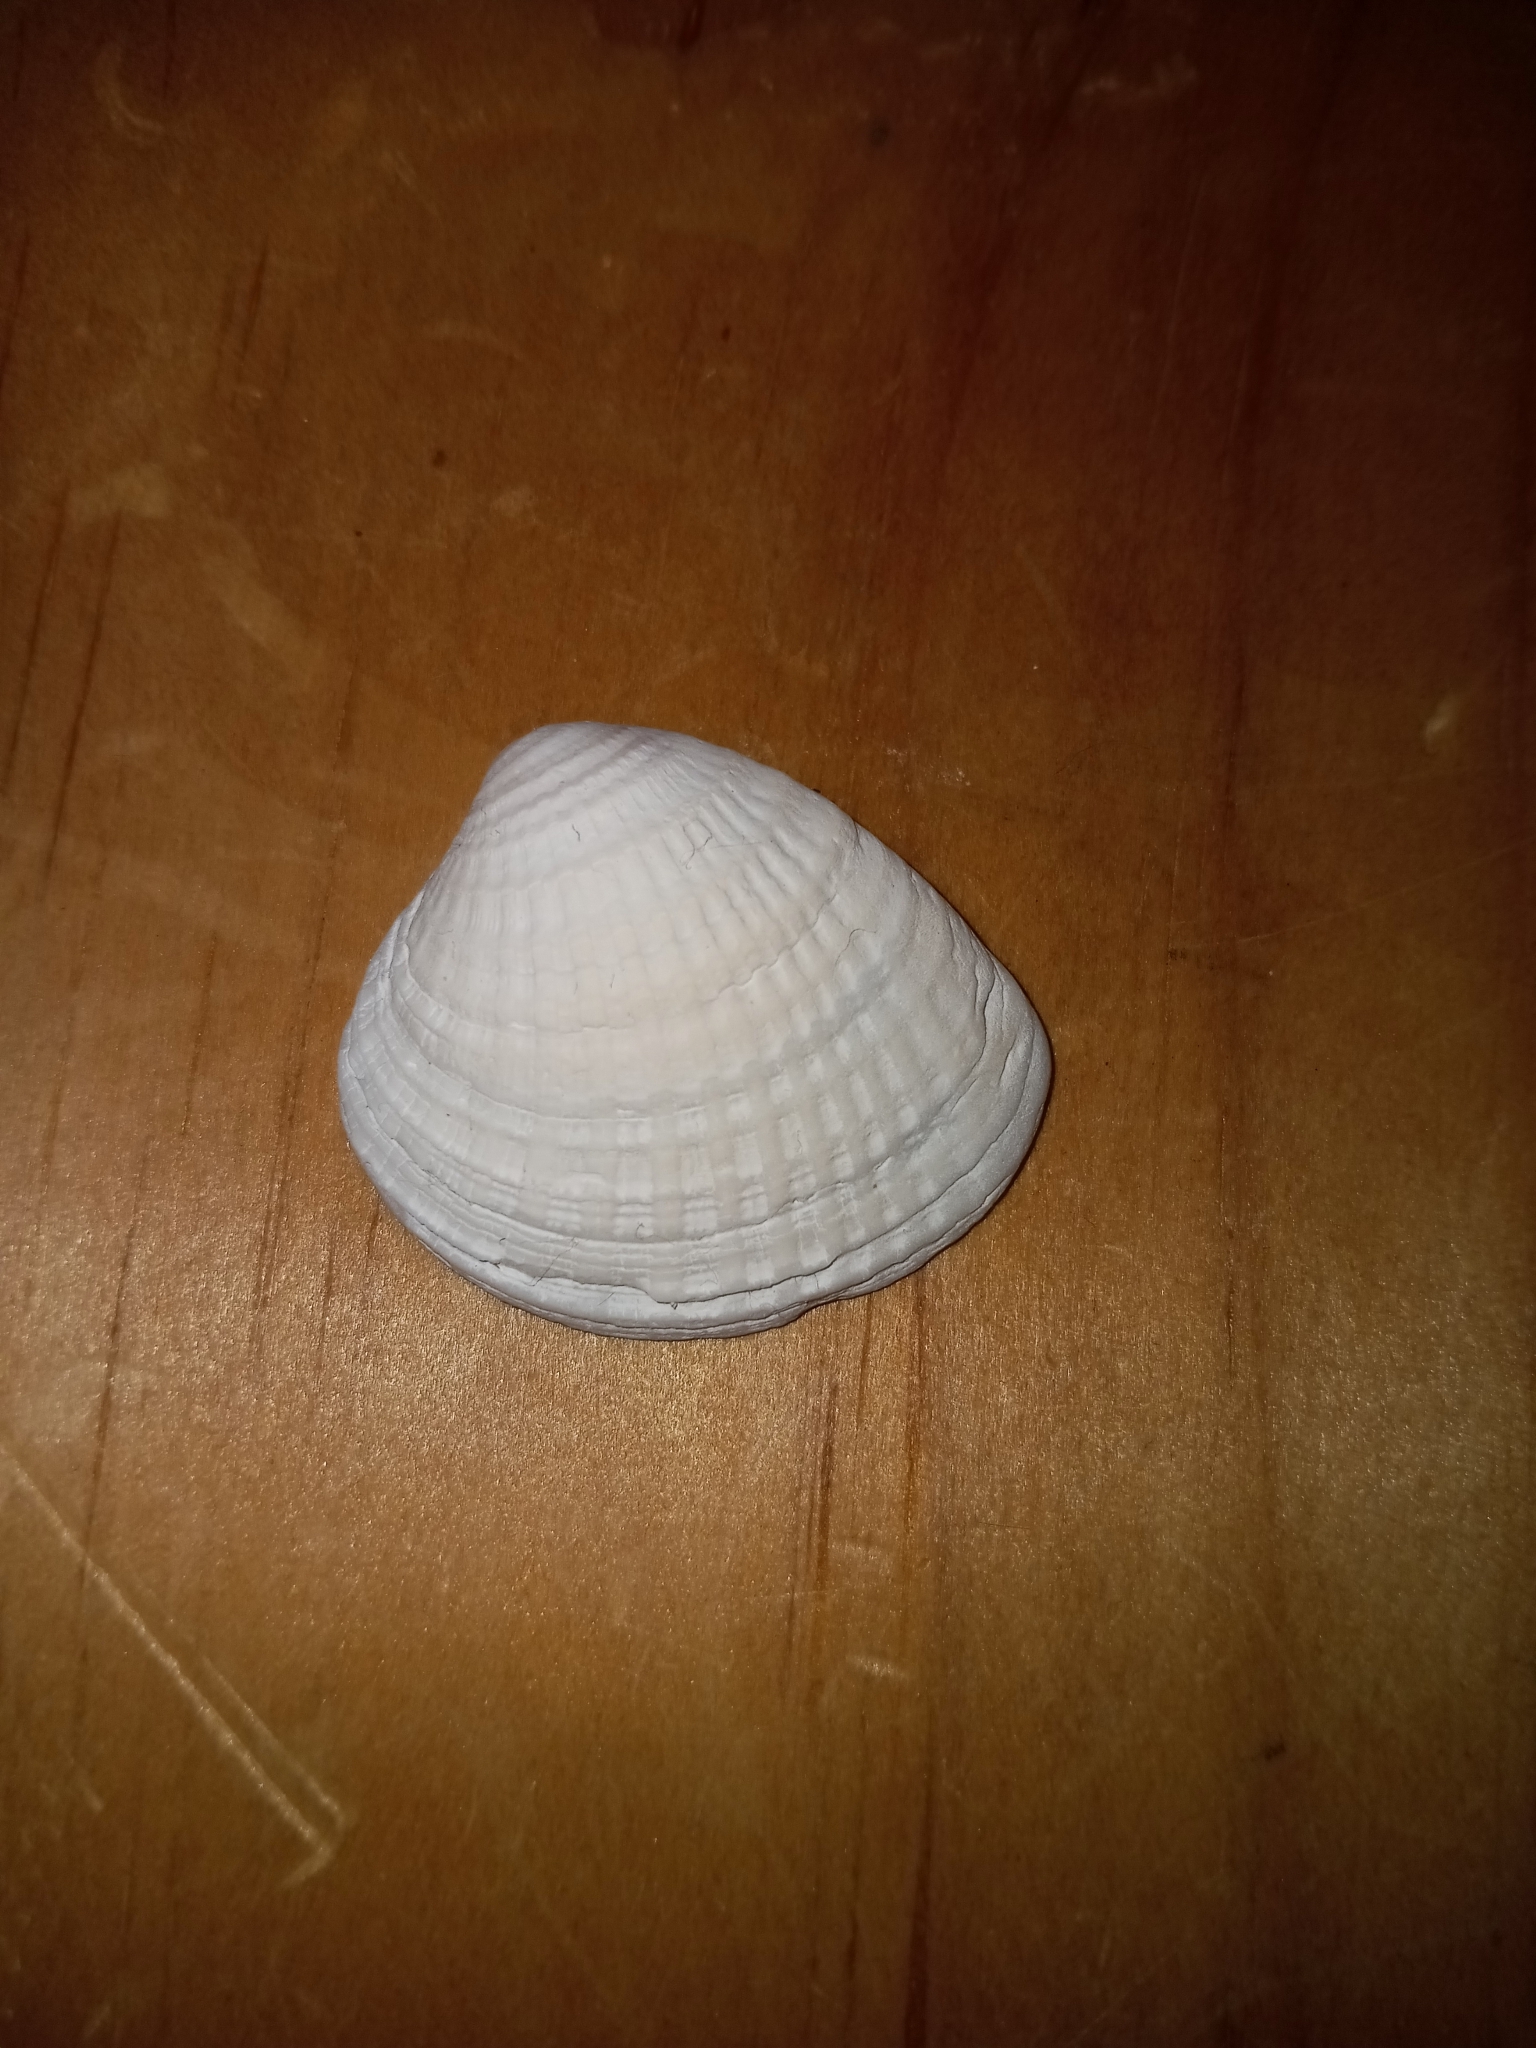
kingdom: Animalia
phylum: Mollusca
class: Bivalvia
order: Venerida
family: Veneridae
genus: Chione
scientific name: Chione elevata
